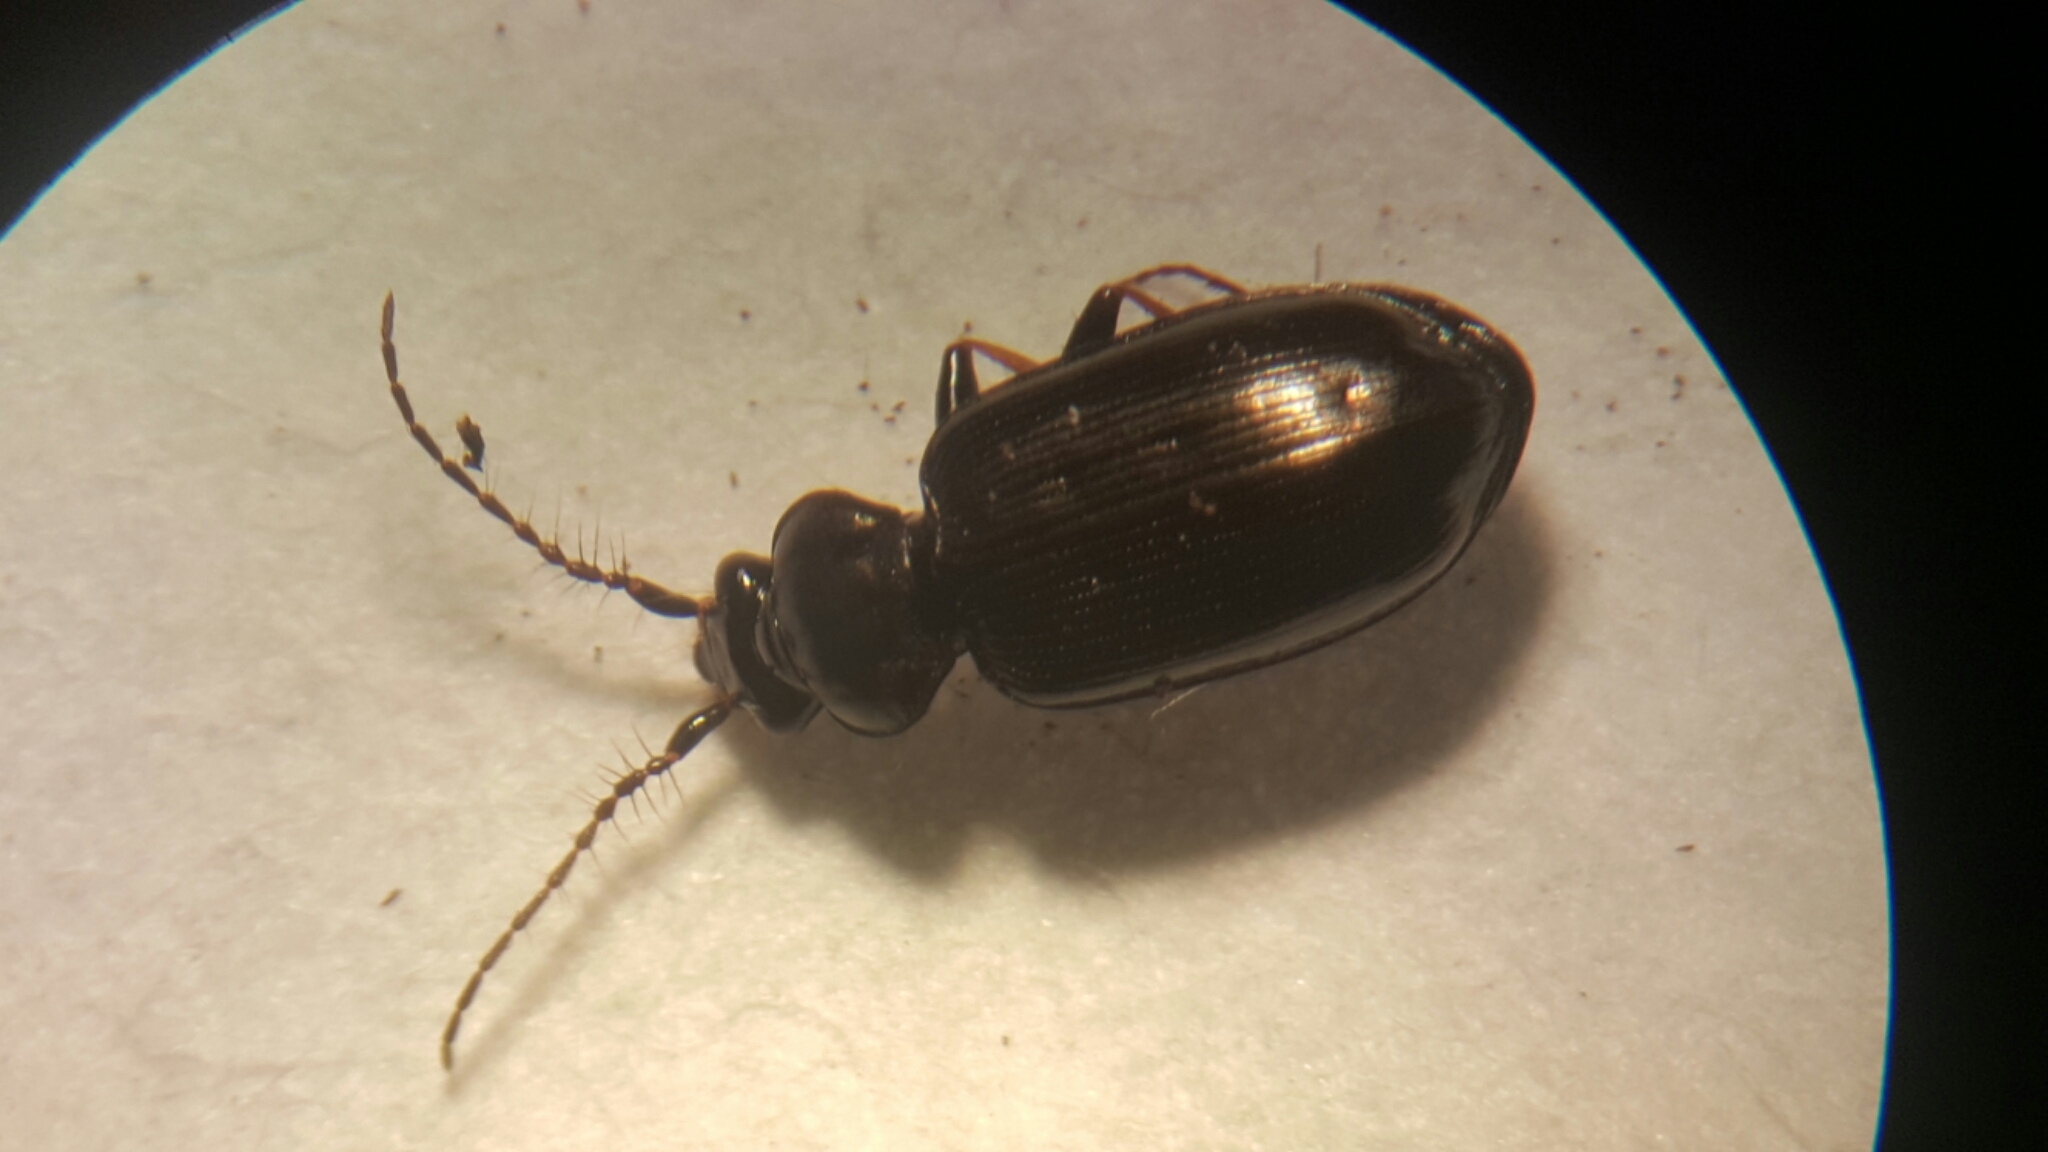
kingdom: Animalia
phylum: Arthropoda
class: Insecta
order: Coleoptera
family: Carabidae
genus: Loricera
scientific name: Loricera pilicornis
